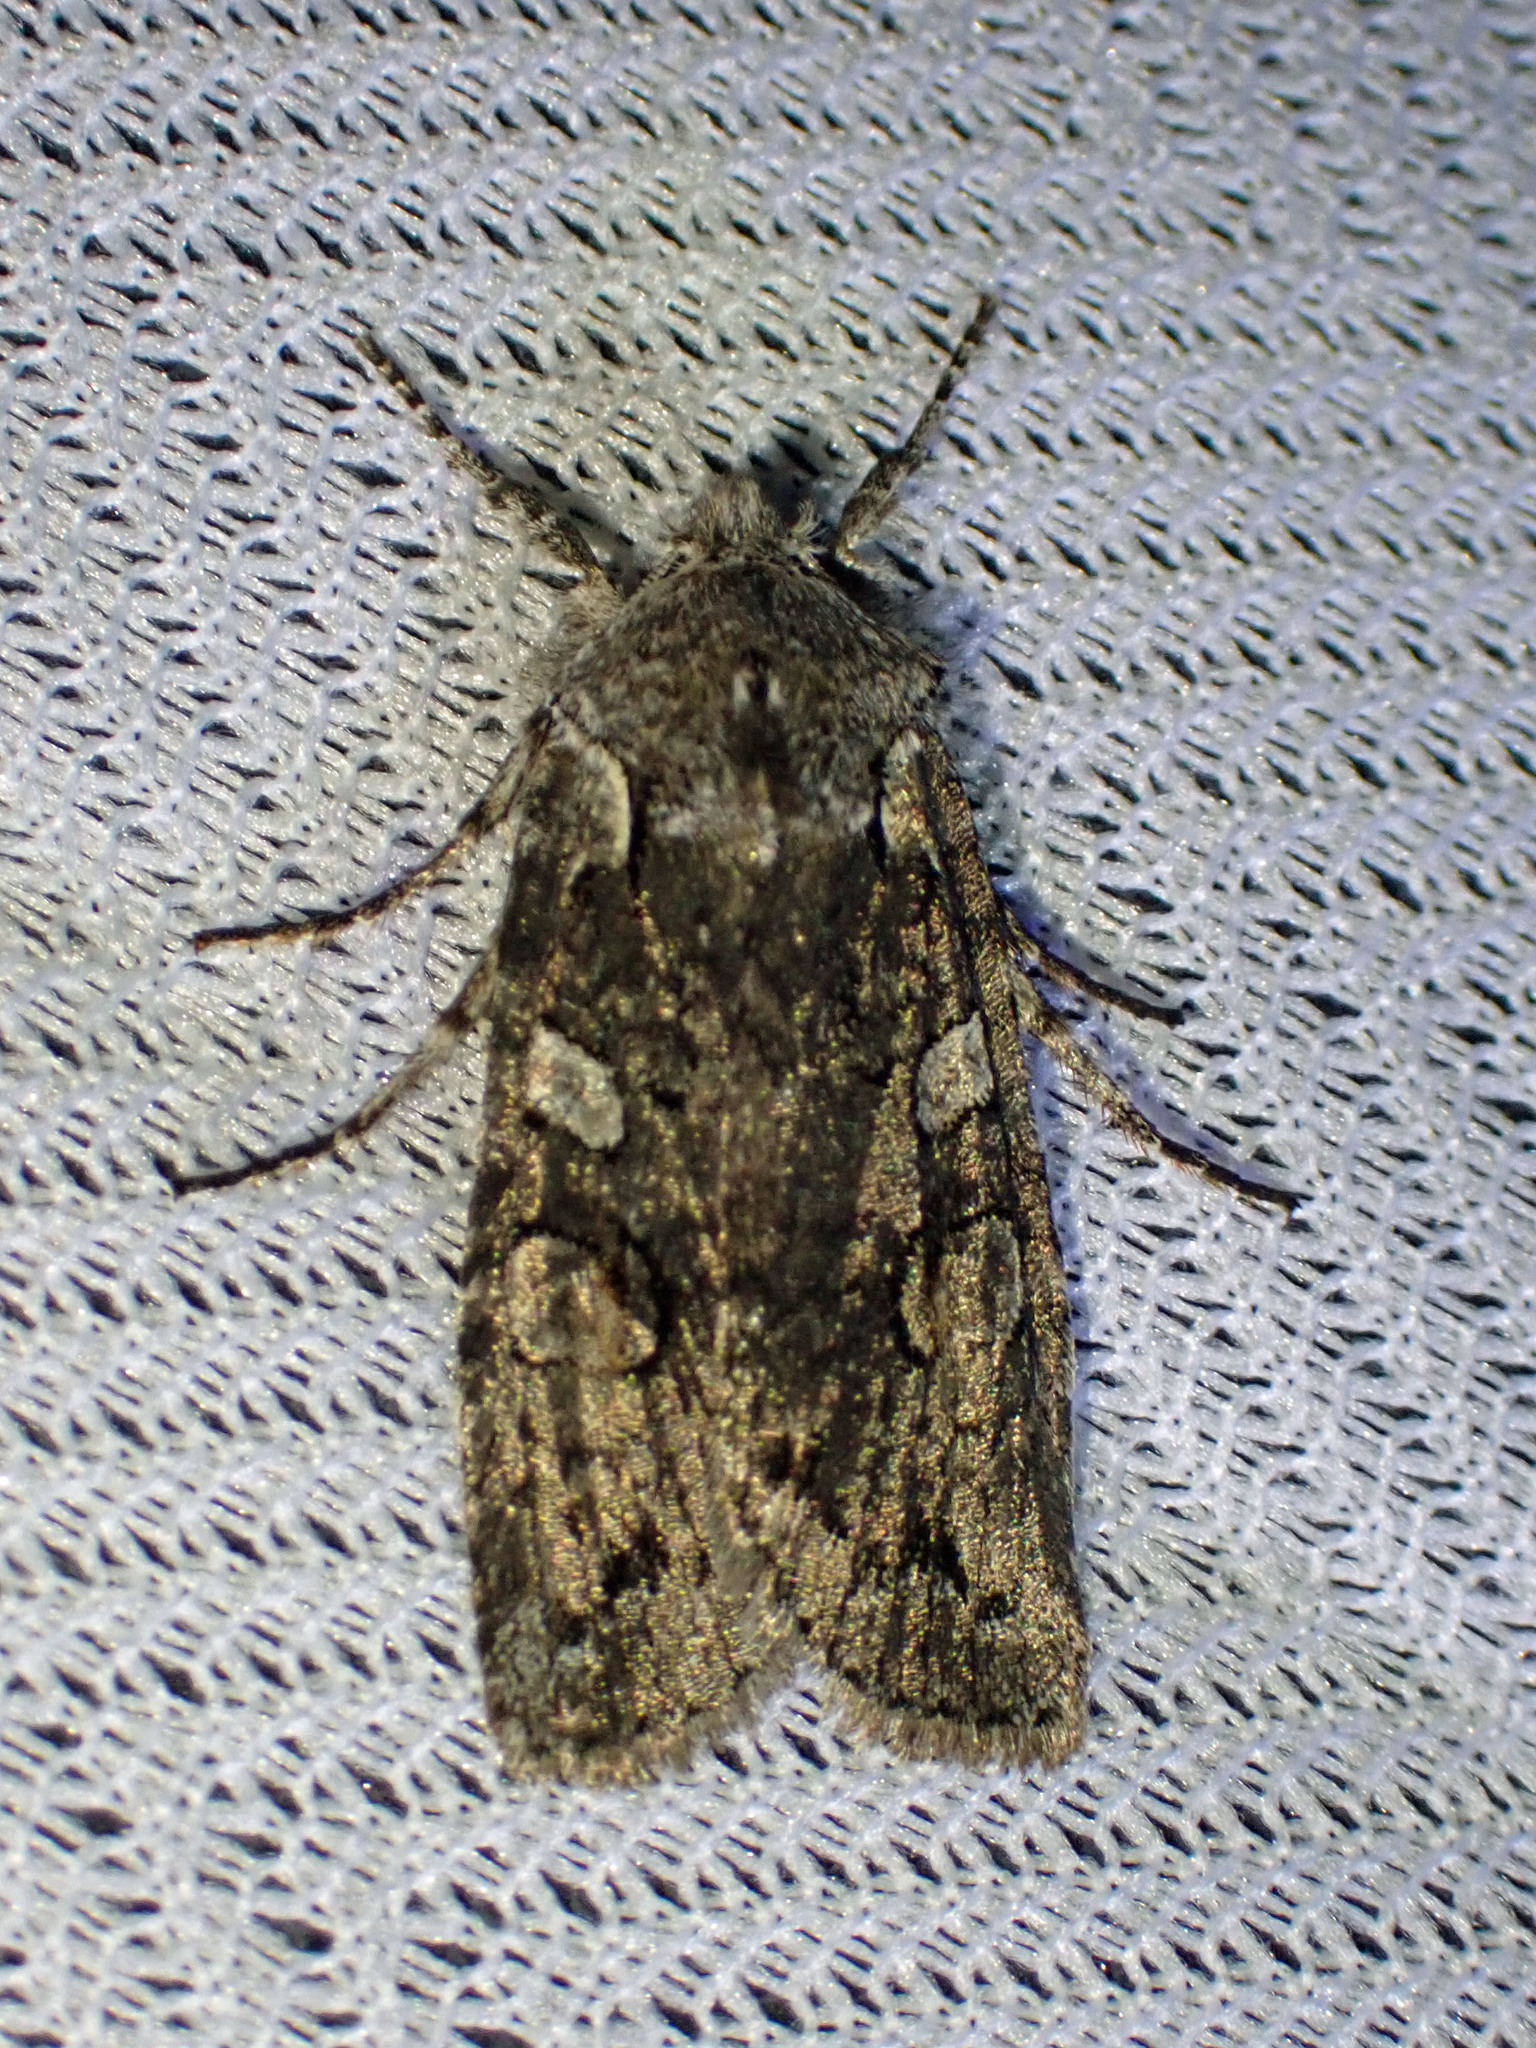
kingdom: Animalia
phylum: Arthropoda
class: Insecta
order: Lepidoptera
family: Noctuidae
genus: Lithophane
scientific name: Lithophane baileyi
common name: Bailey's pinion moth
